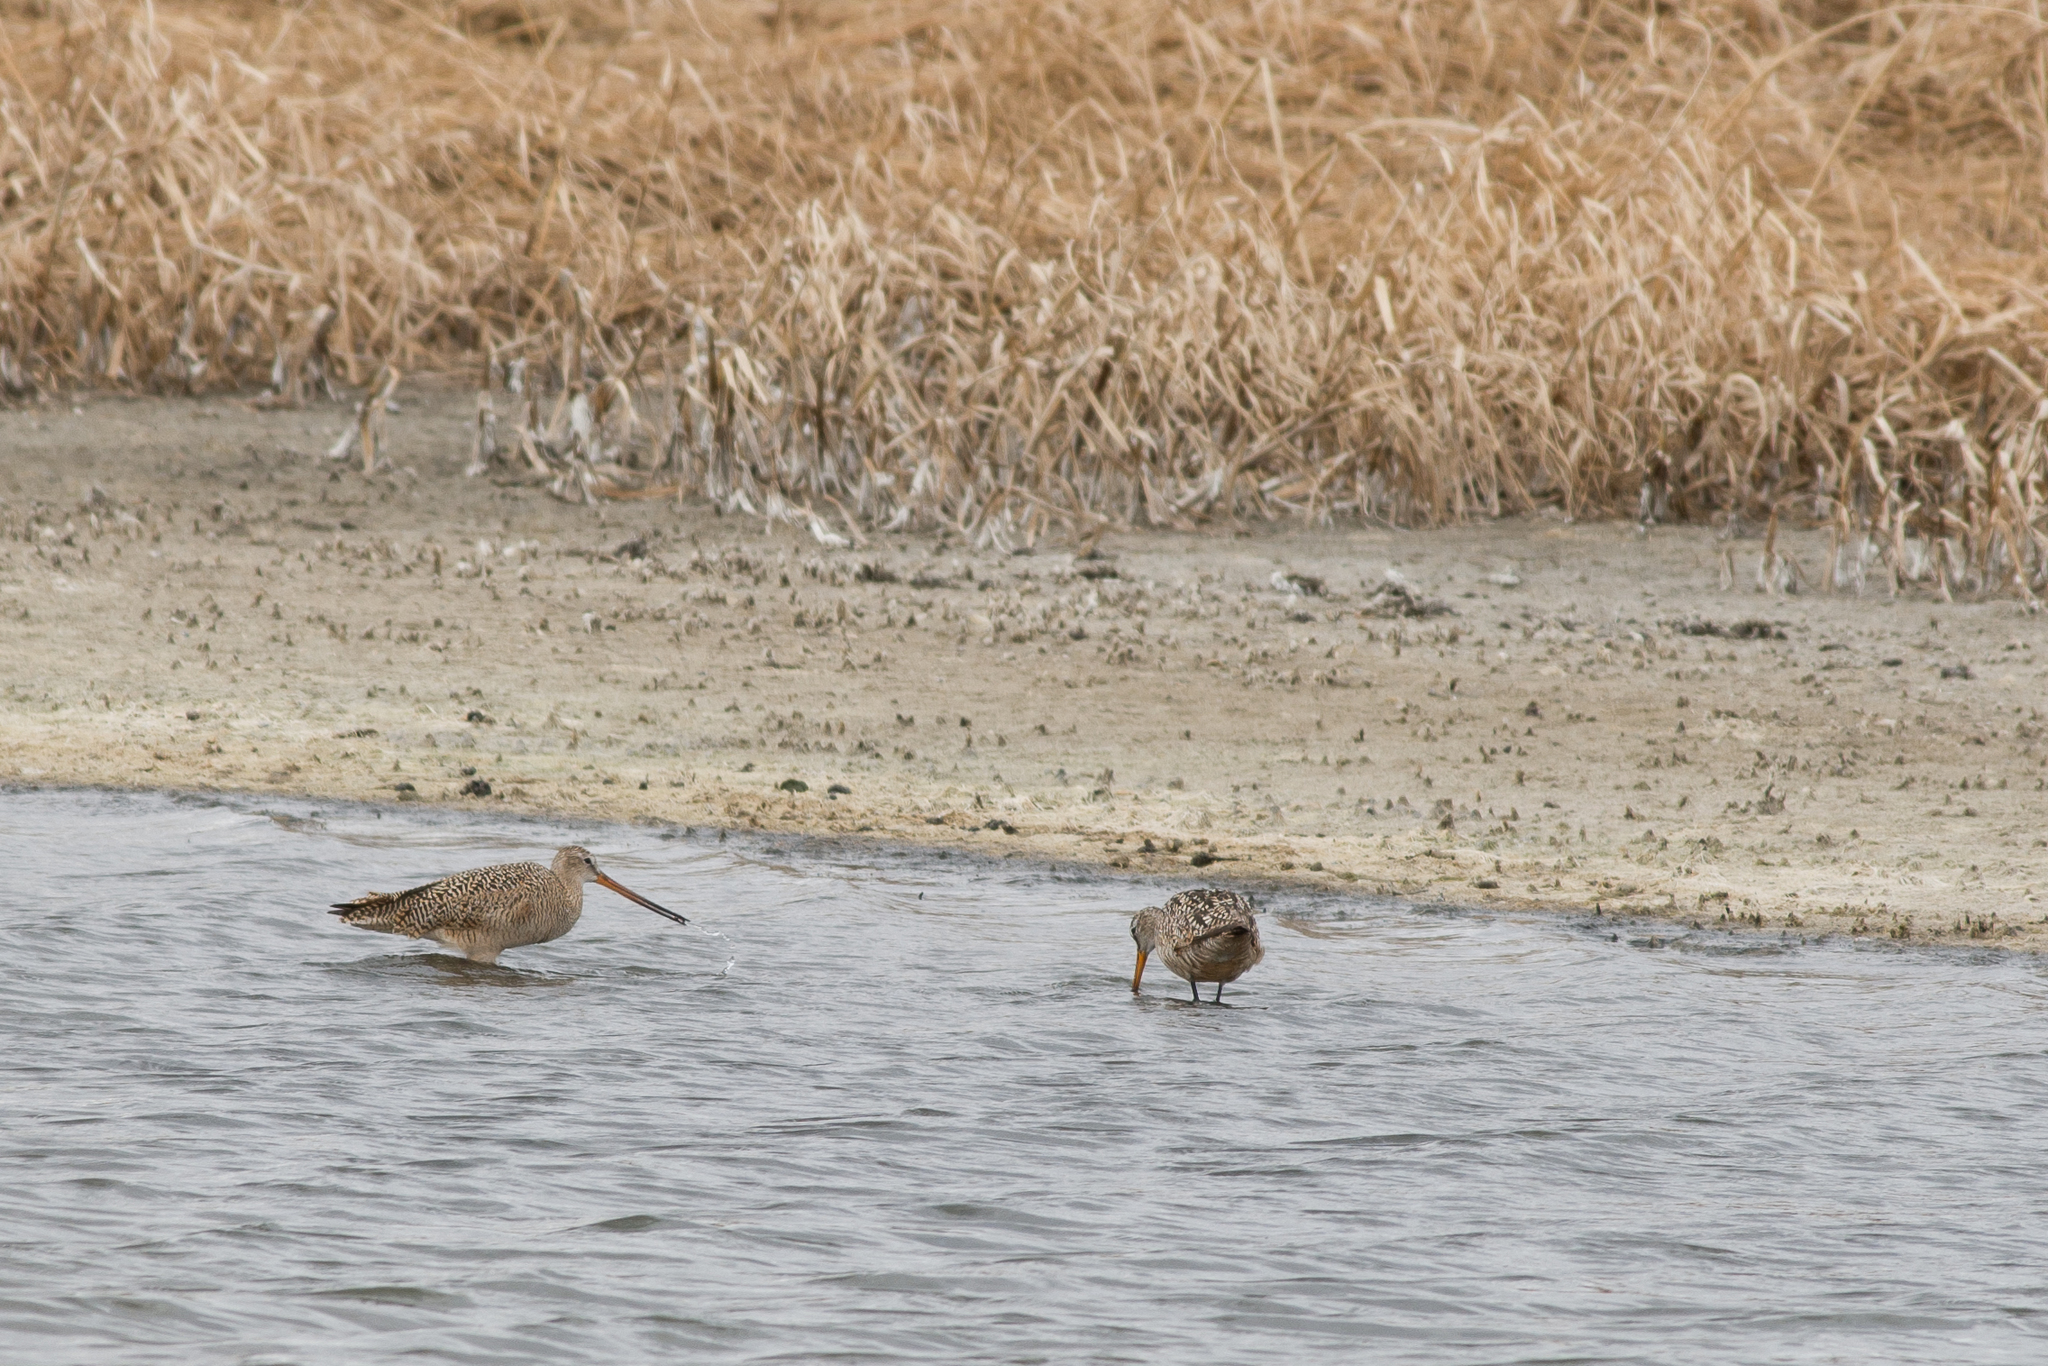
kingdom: Animalia
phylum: Chordata
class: Aves
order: Charadriiformes
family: Scolopacidae
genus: Limosa
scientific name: Limosa fedoa
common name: Marbled godwit
